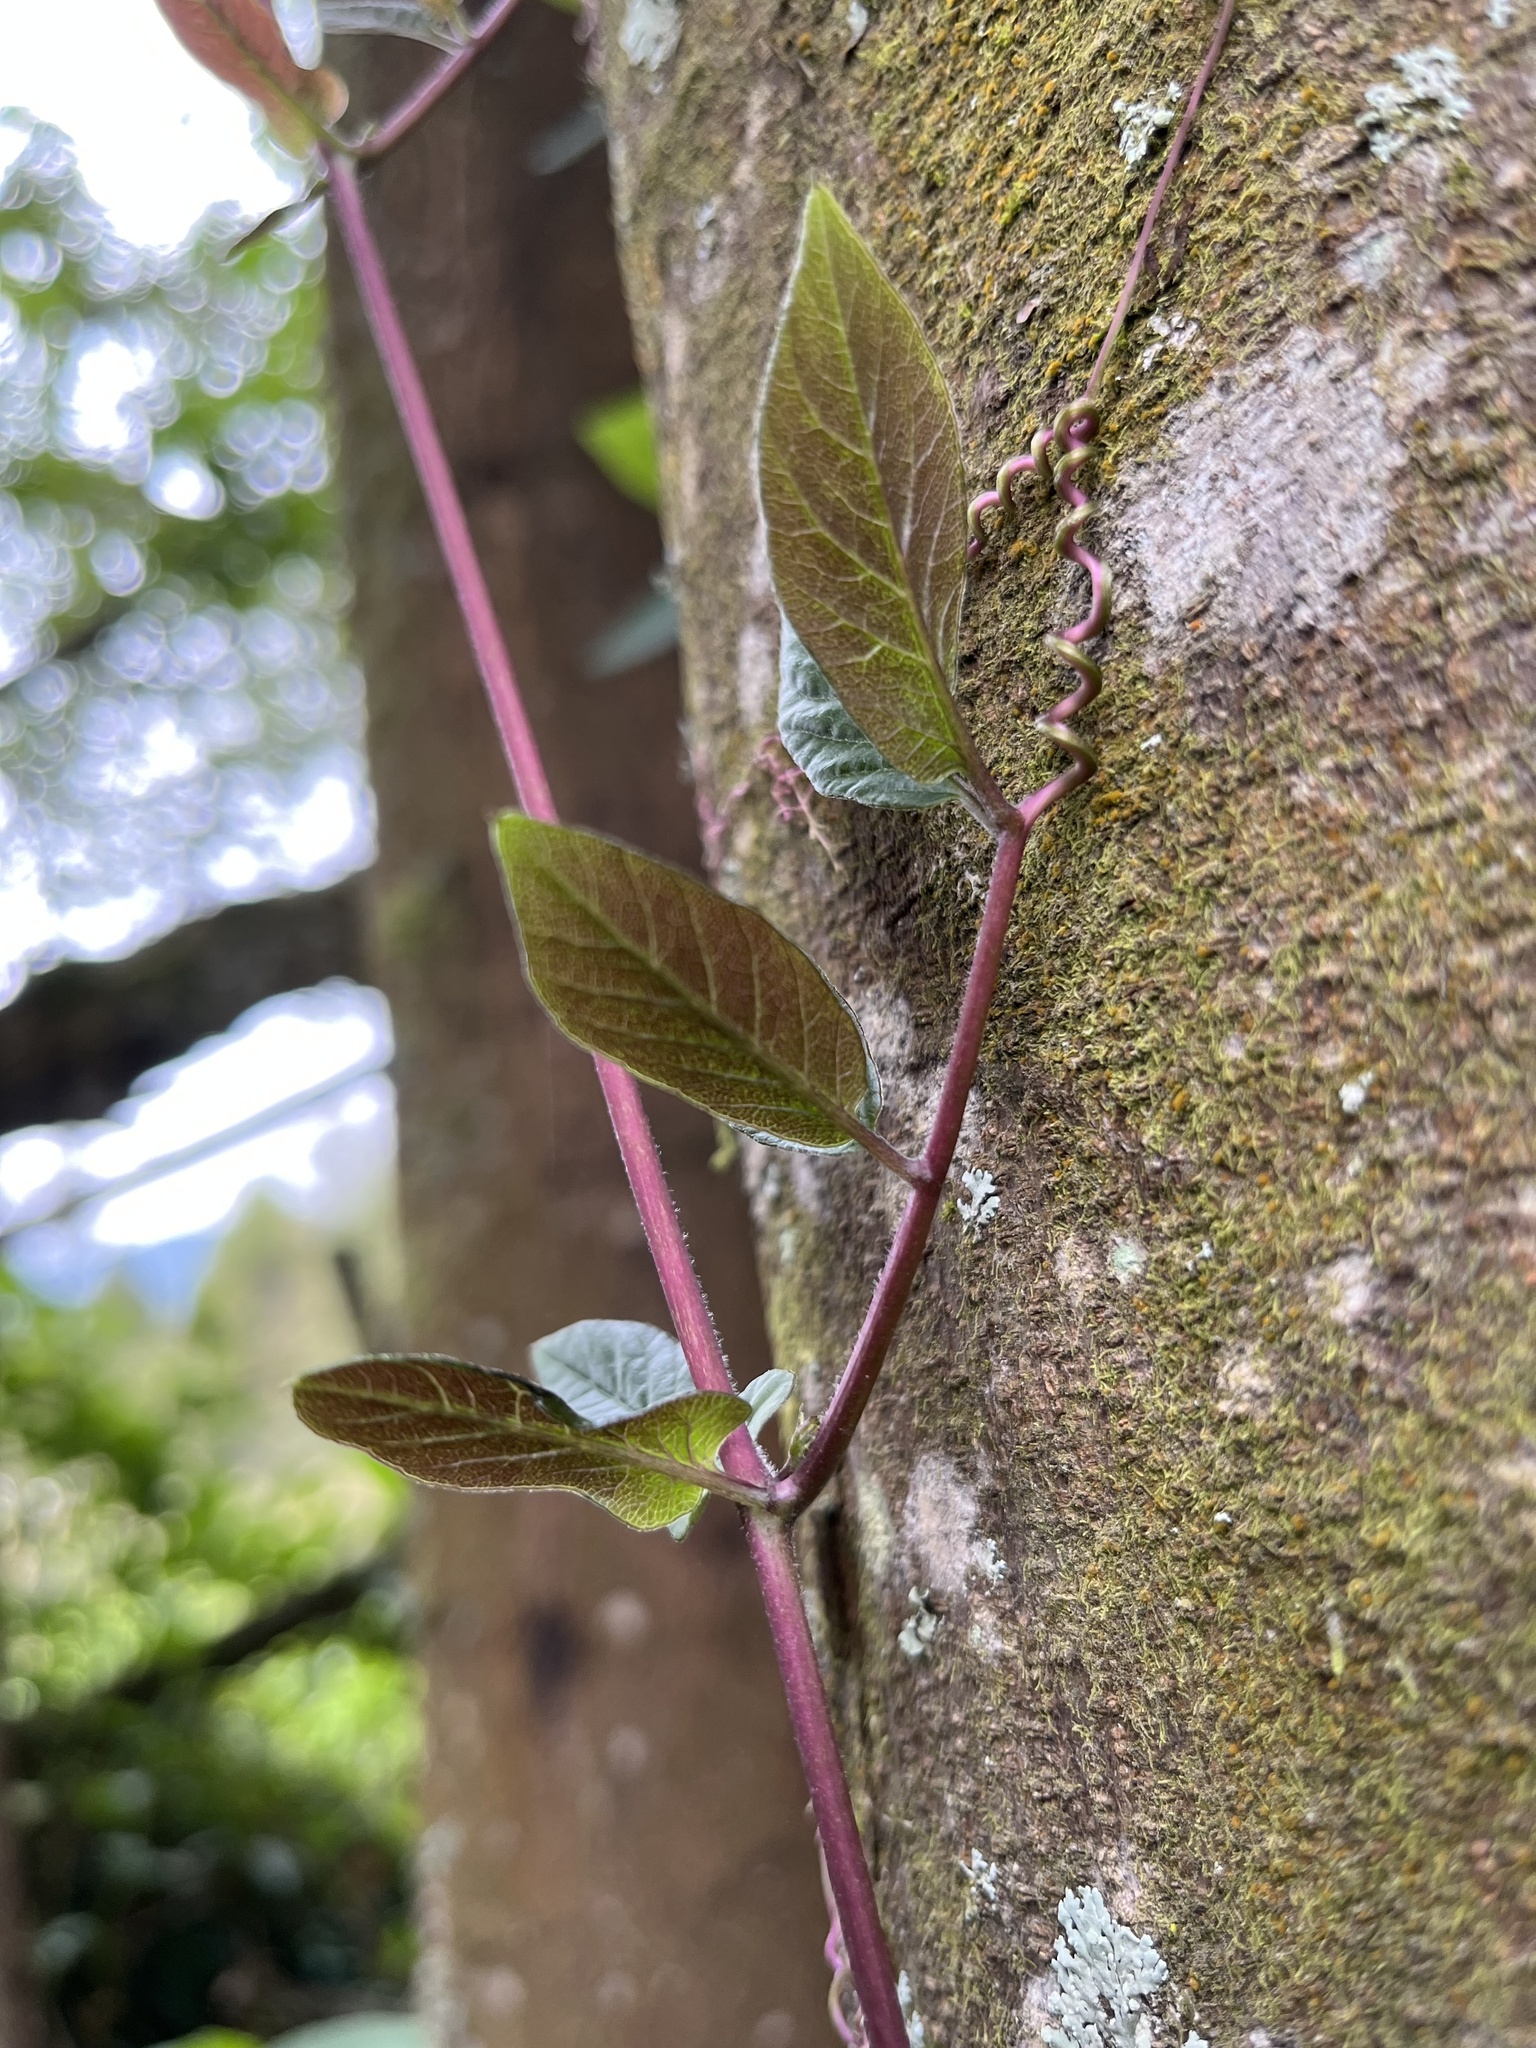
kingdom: Plantae
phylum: Tracheophyta
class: Magnoliopsida
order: Ericales
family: Polemoniaceae
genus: Cobaea
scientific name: Cobaea scandens
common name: Cup-and-saucer-vine
